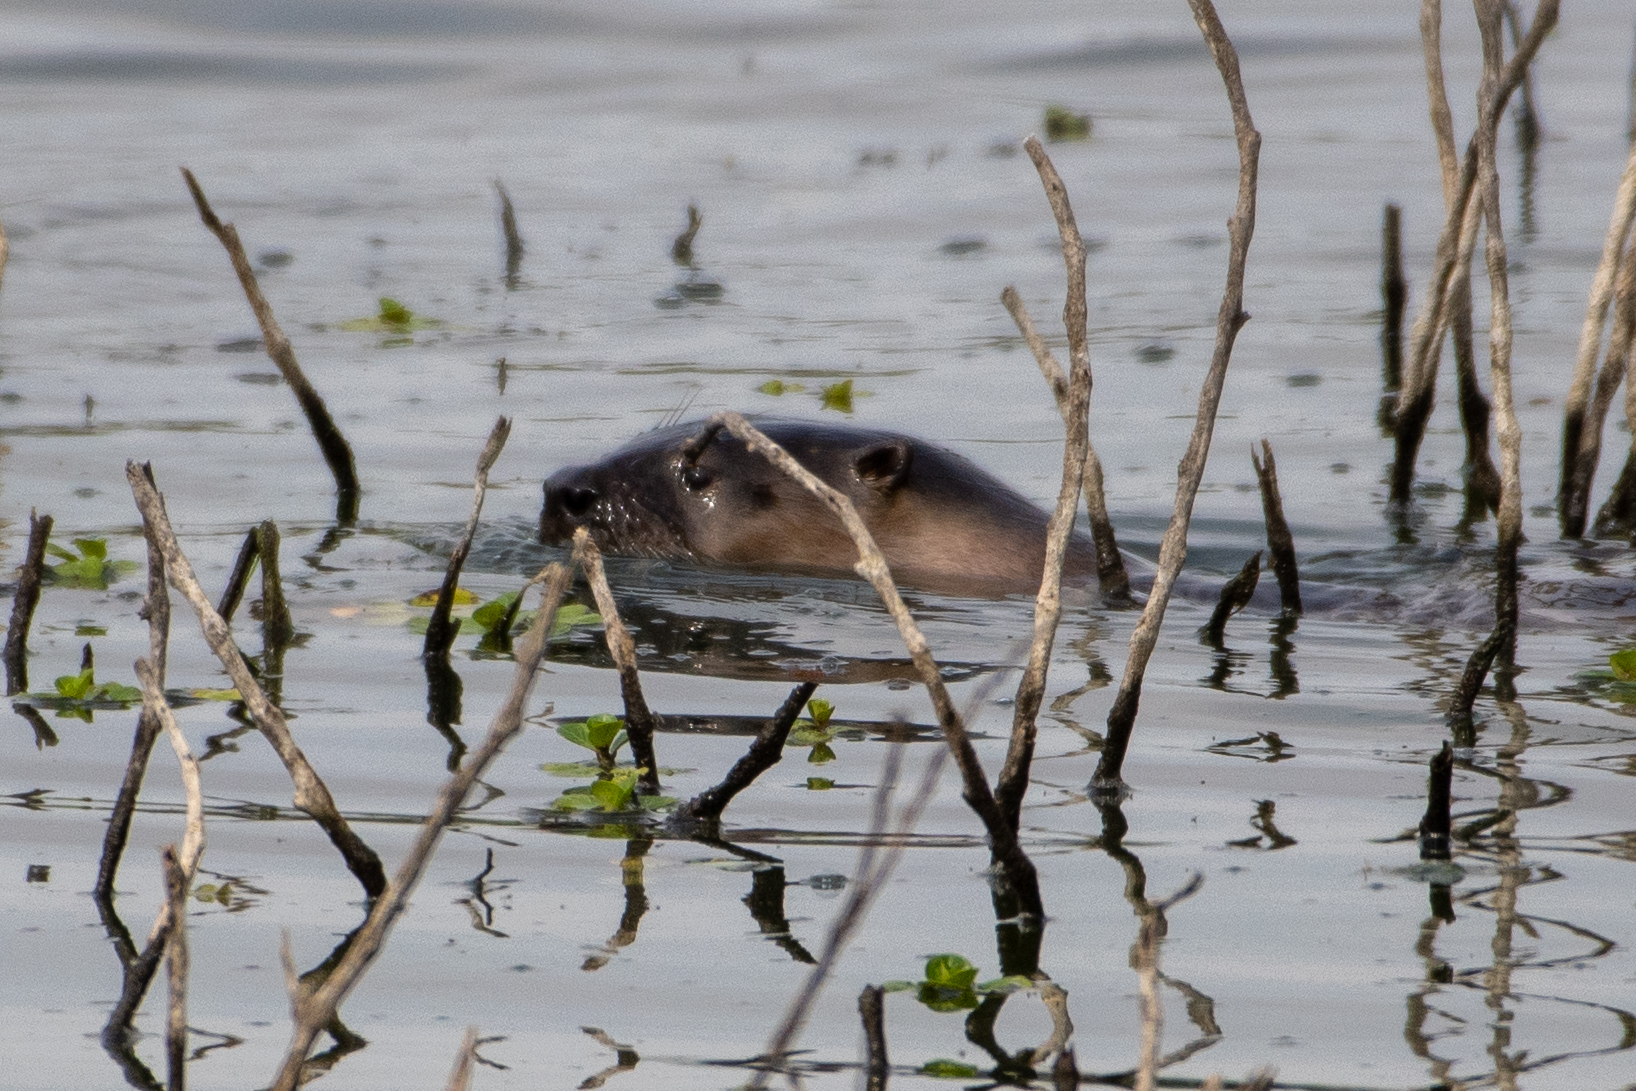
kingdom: Animalia
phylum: Chordata
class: Mammalia
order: Carnivora
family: Mustelidae
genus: Lontra
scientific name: Lontra canadensis
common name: North american river otter
